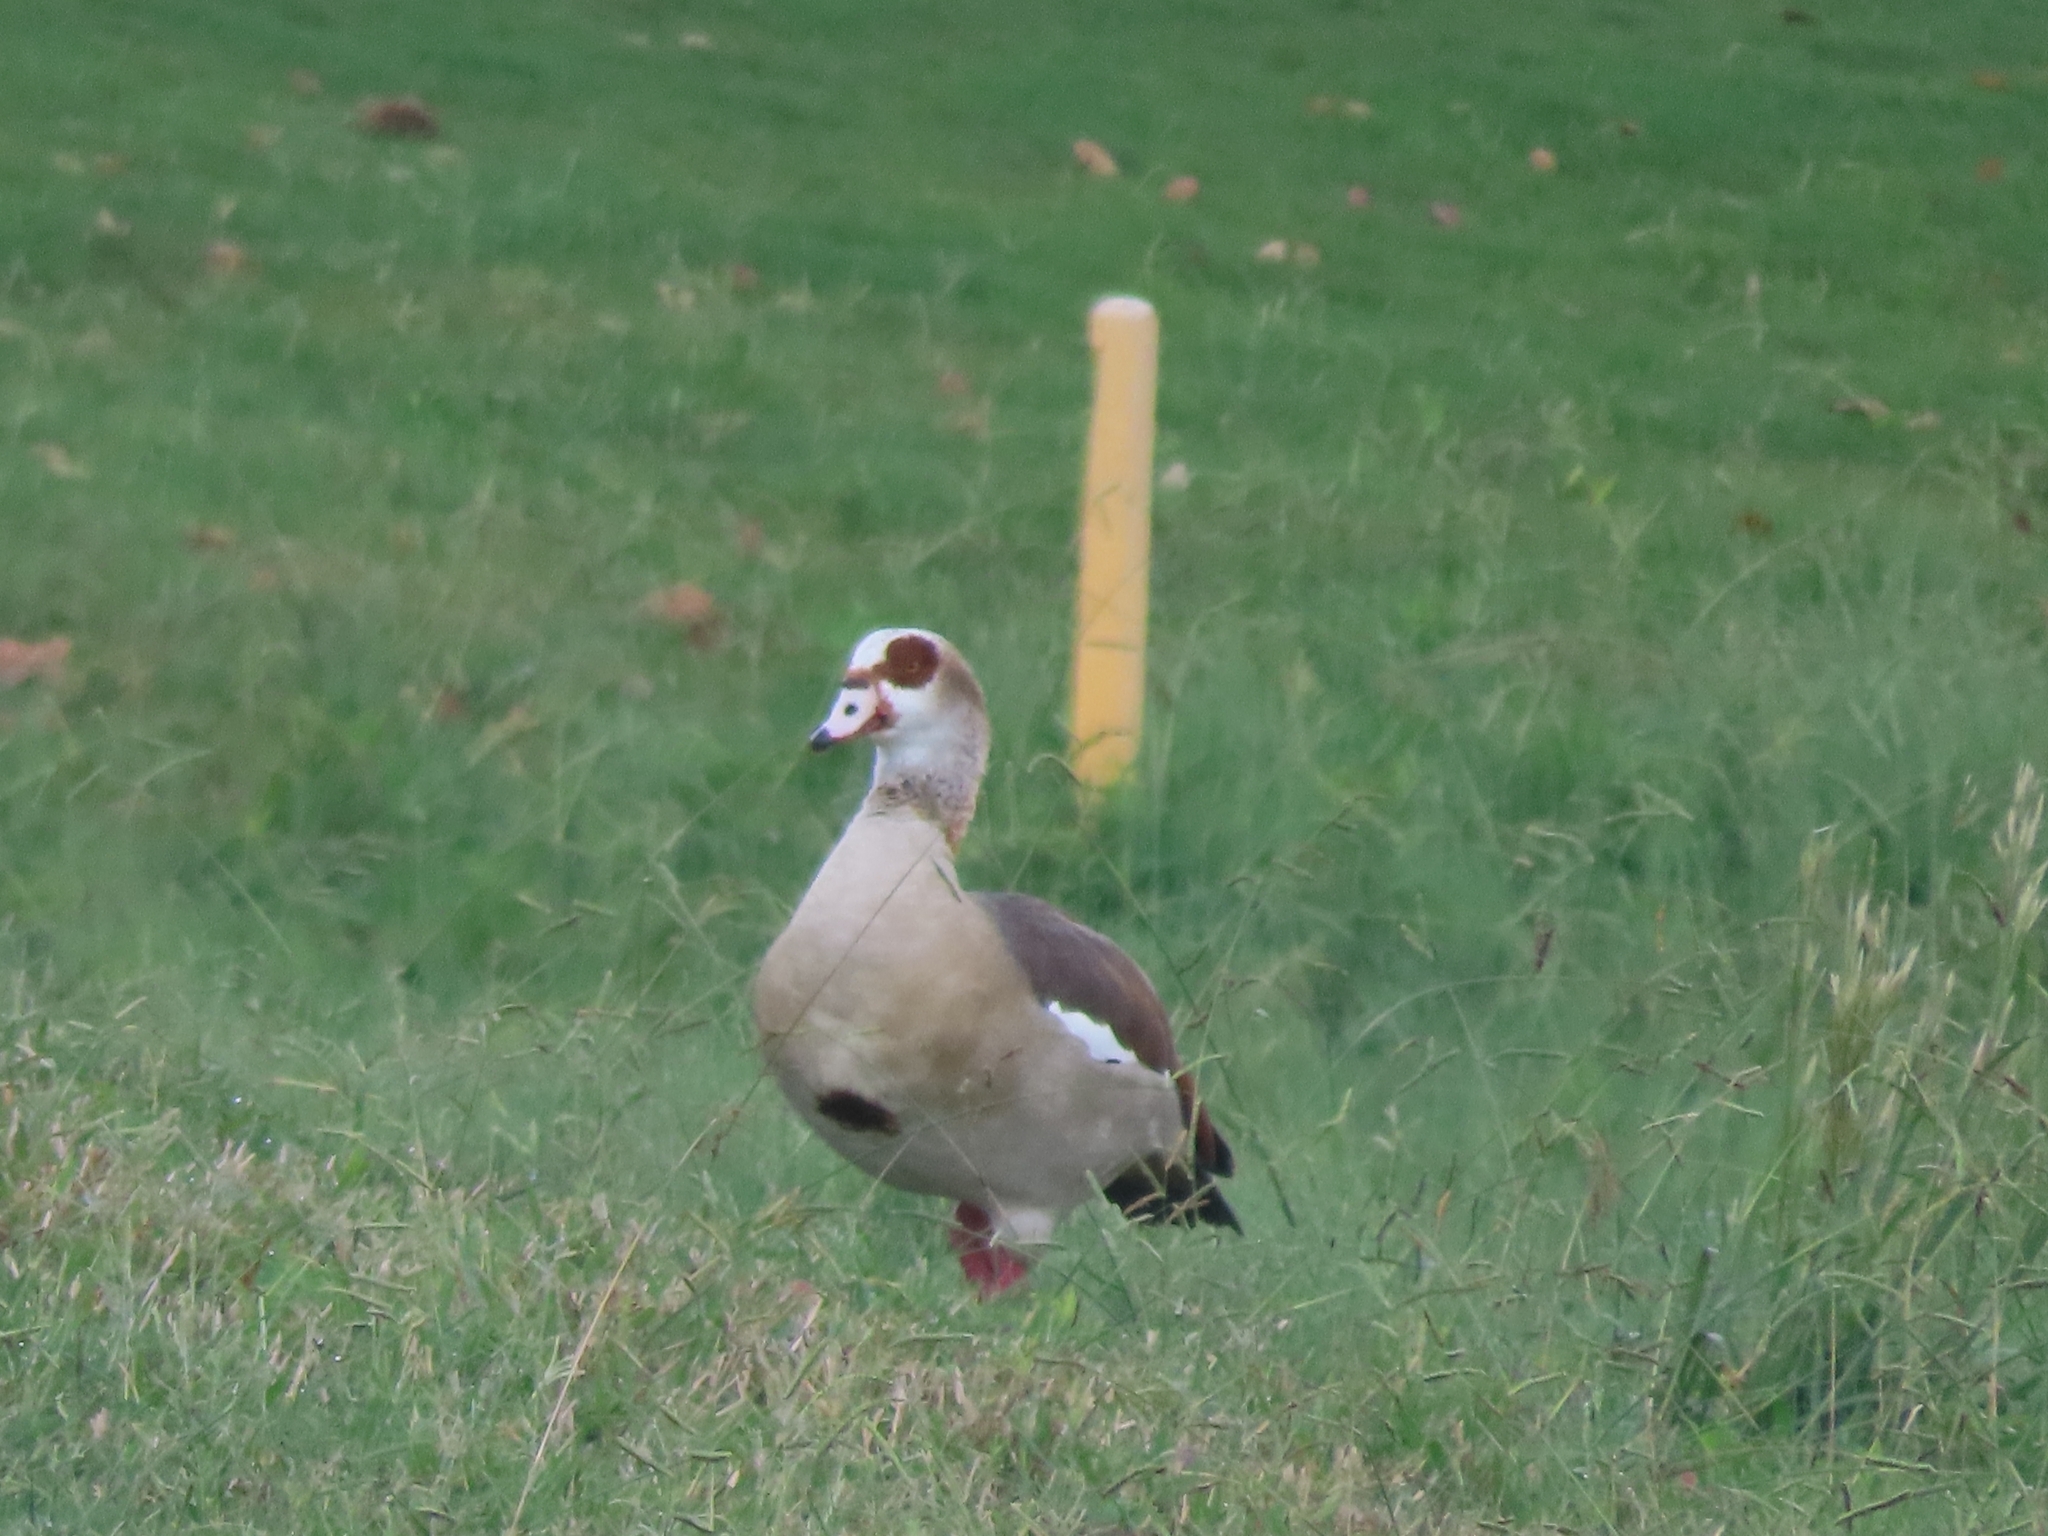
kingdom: Animalia
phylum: Chordata
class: Aves
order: Anseriformes
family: Anatidae
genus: Alopochen
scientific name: Alopochen aegyptiaca
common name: Egyptian goose
